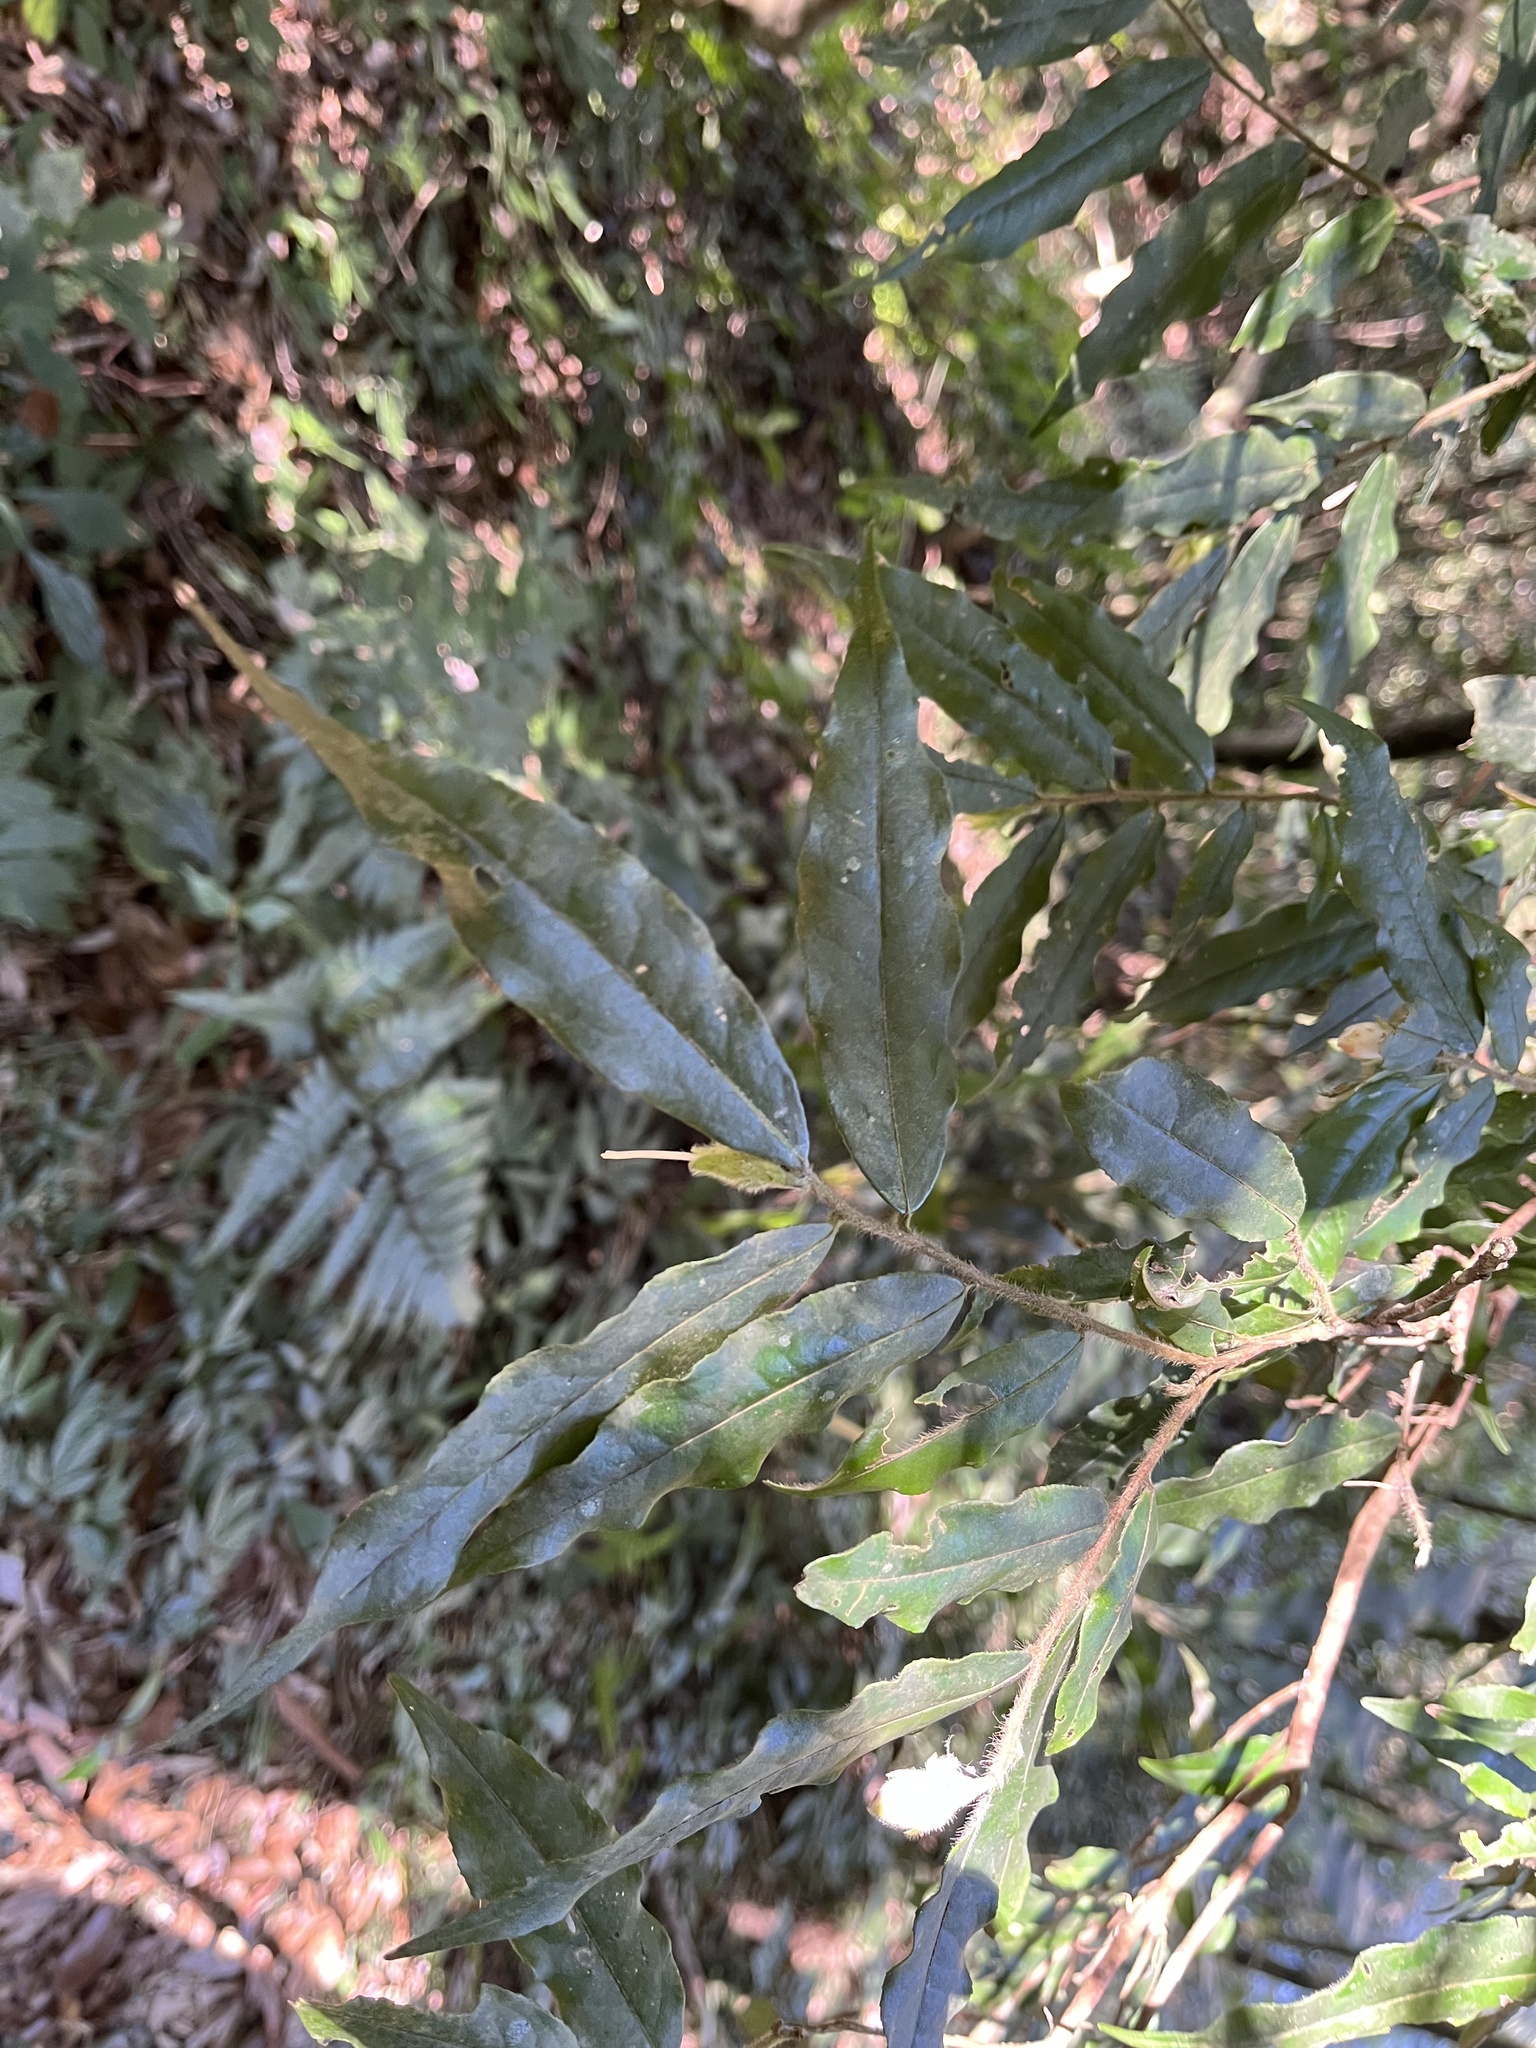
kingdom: Plantae
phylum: Tracheophyta
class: Magnoliopsida
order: Ericales
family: Theaceae
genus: Camellia
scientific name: Camellia salicifolia
